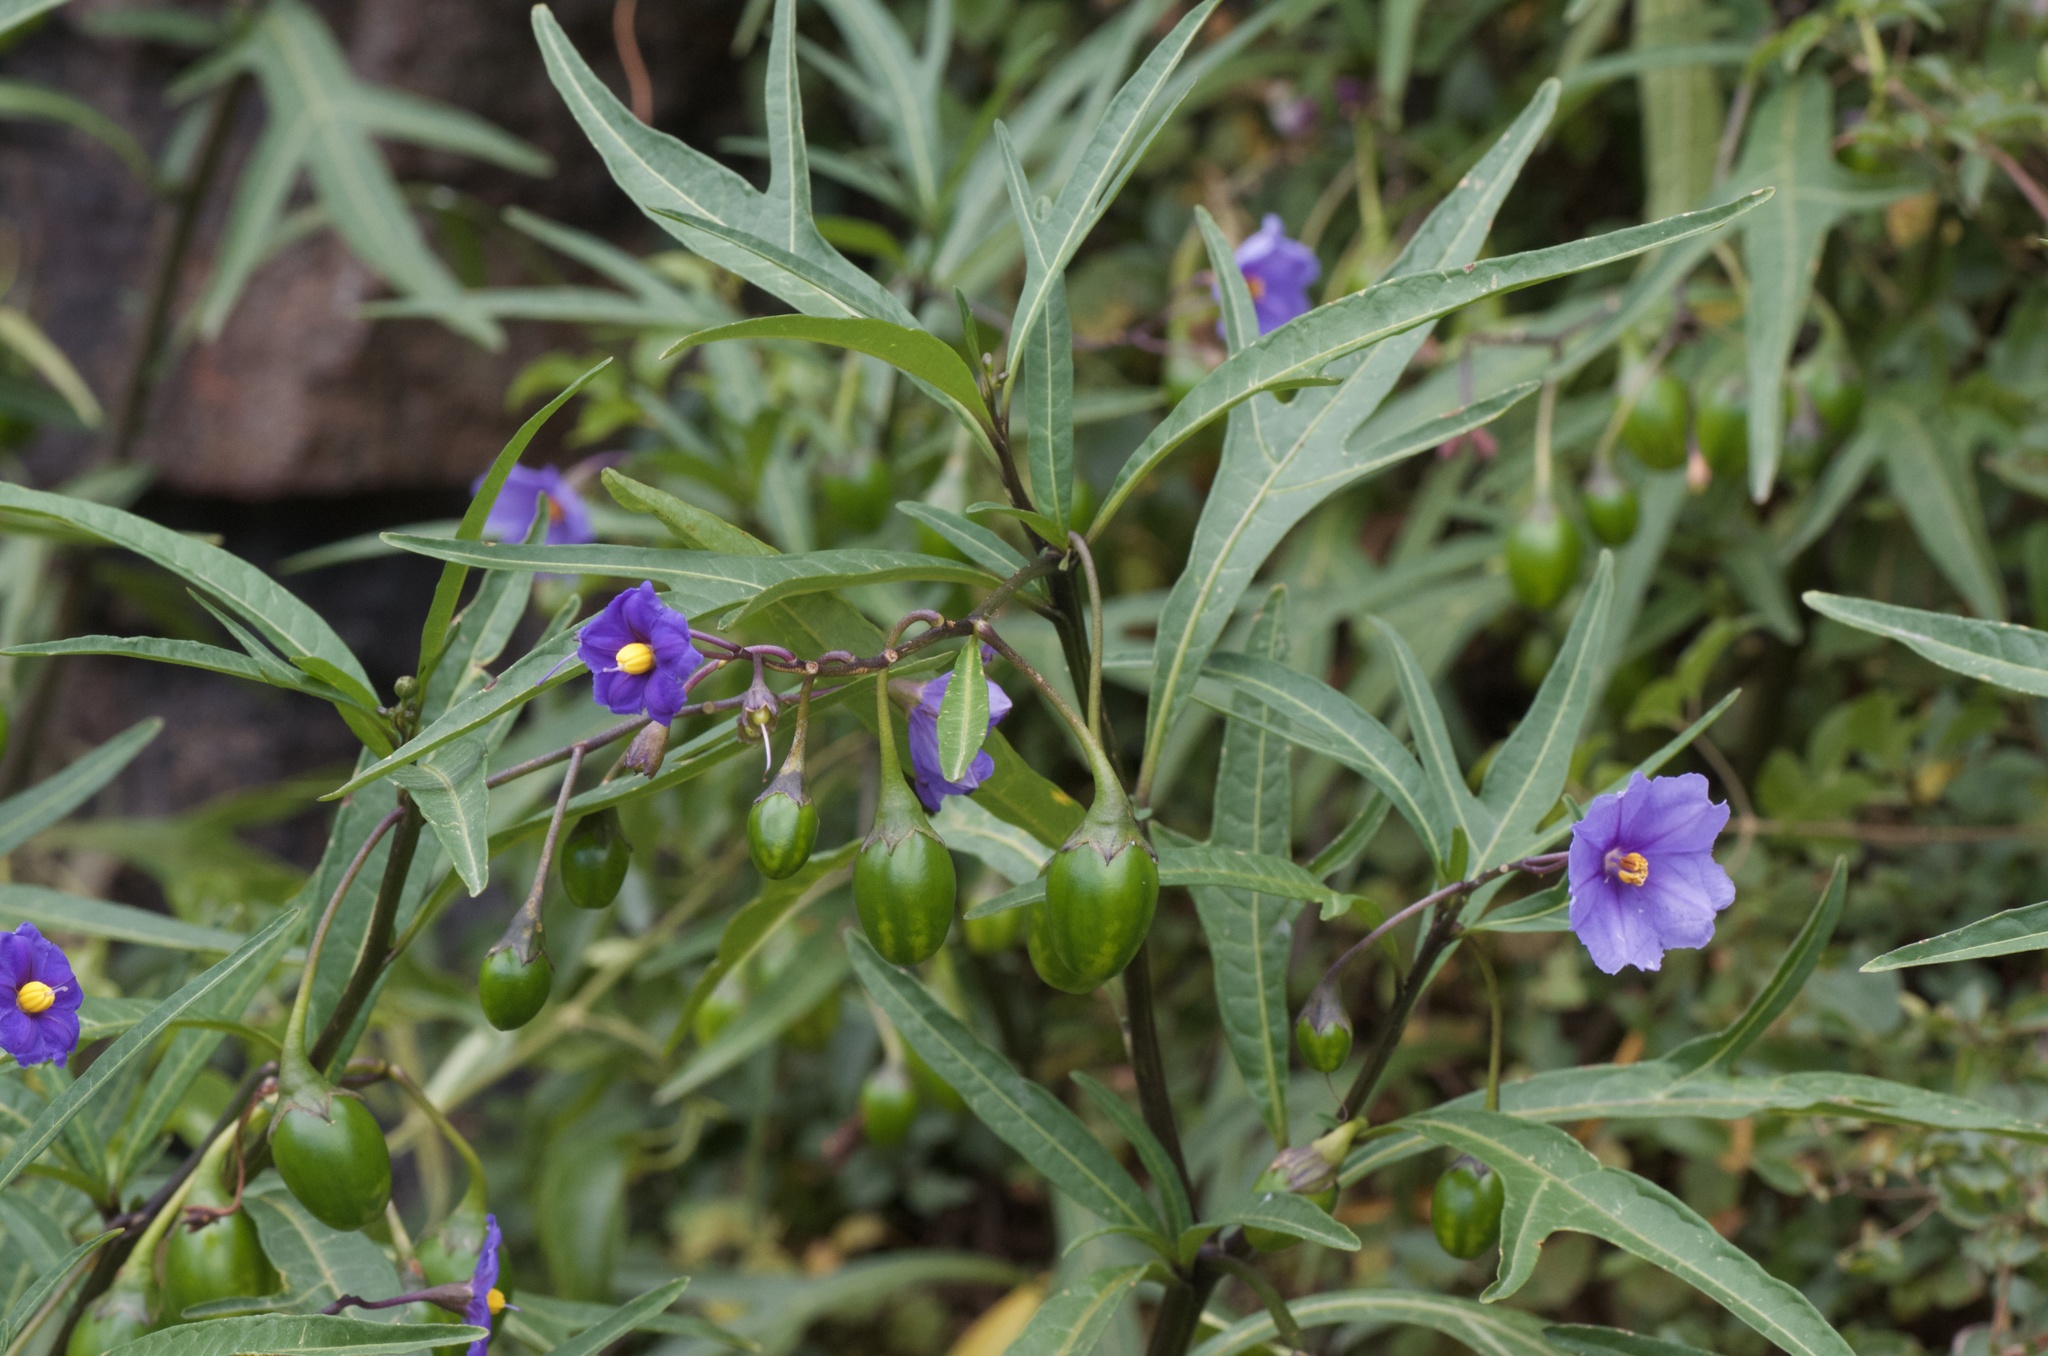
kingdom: Plantae
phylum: Tracheophyta
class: Magnoliopsida
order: Solanales
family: Solanaceae
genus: Solanum
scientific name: Solanum laciniatum
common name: Kangaroo-apple
